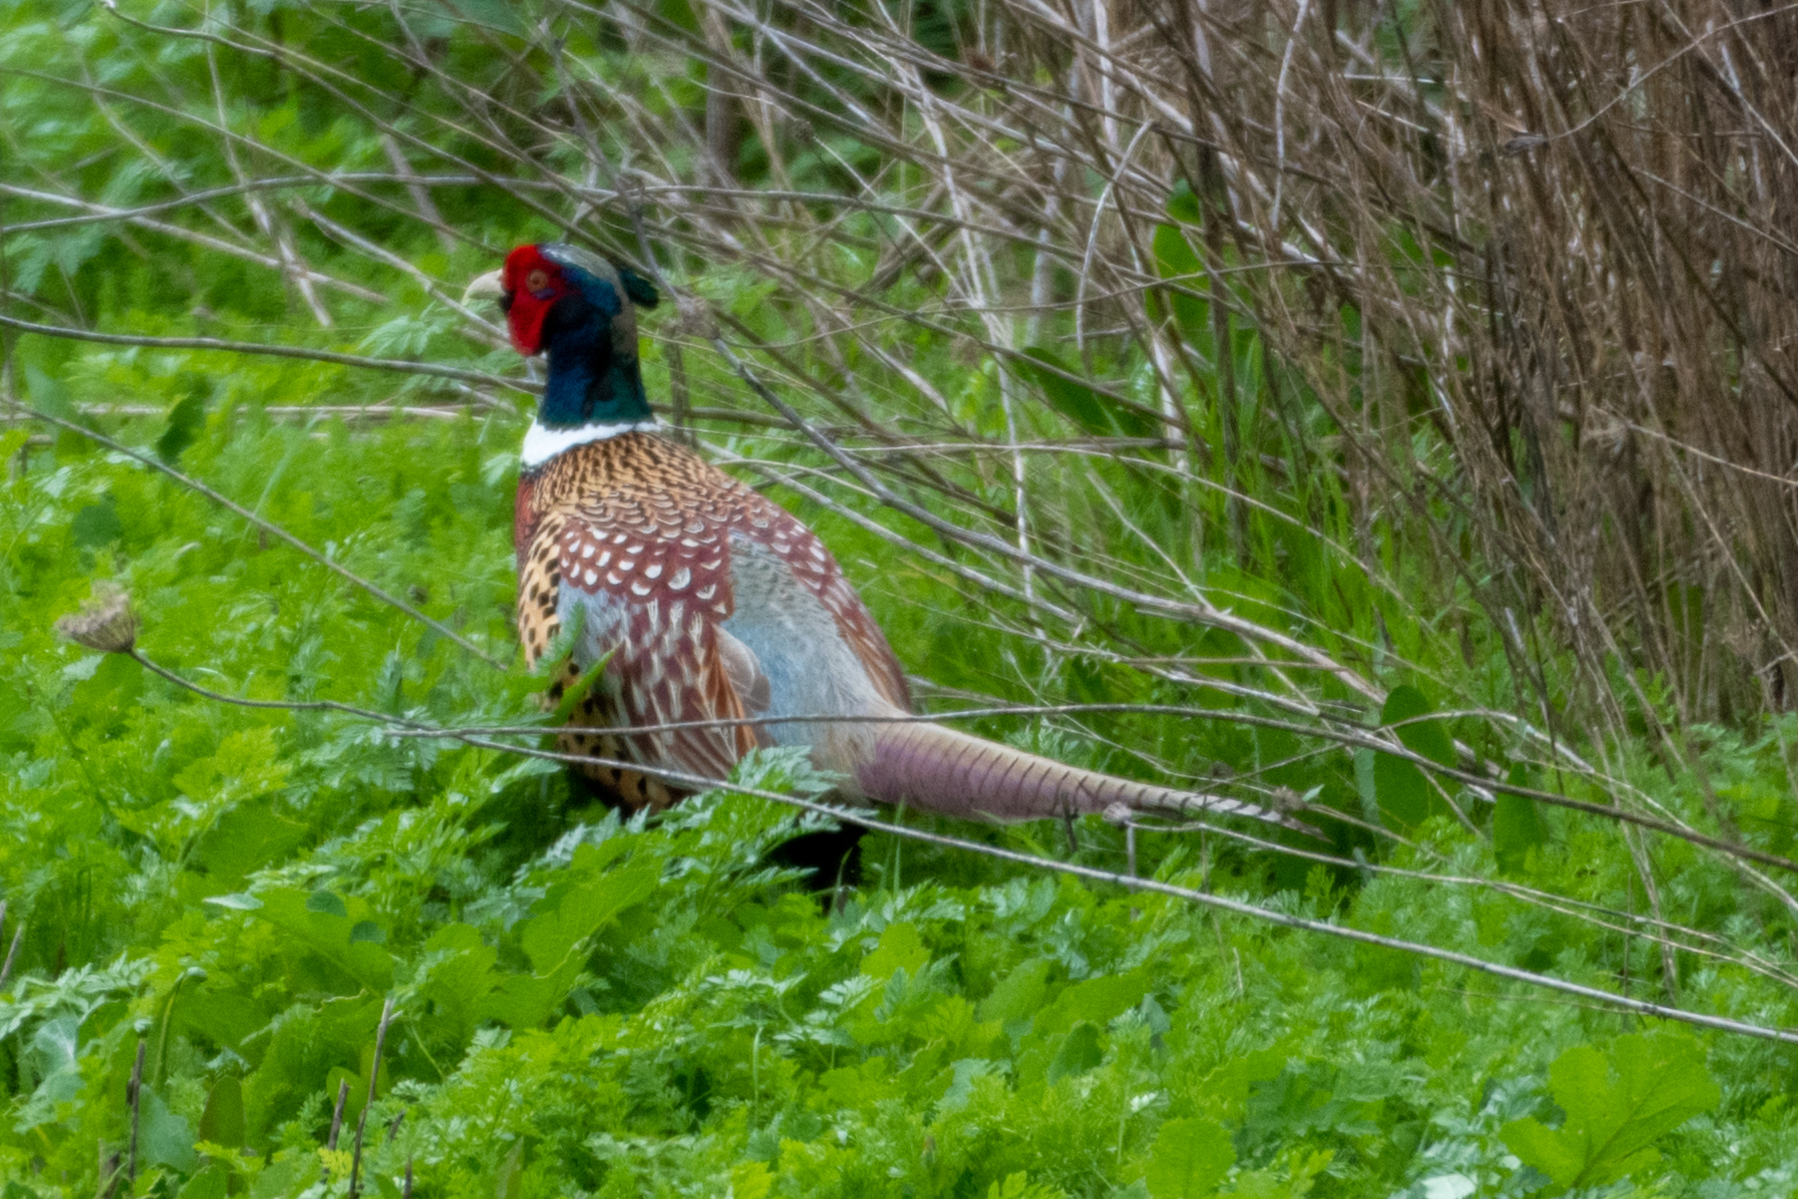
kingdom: Animalia
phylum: Chordata
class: Aves
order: Galliformes
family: Phasianidae
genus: Phasianus
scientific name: Phasianus colchicus
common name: Common pheasant
